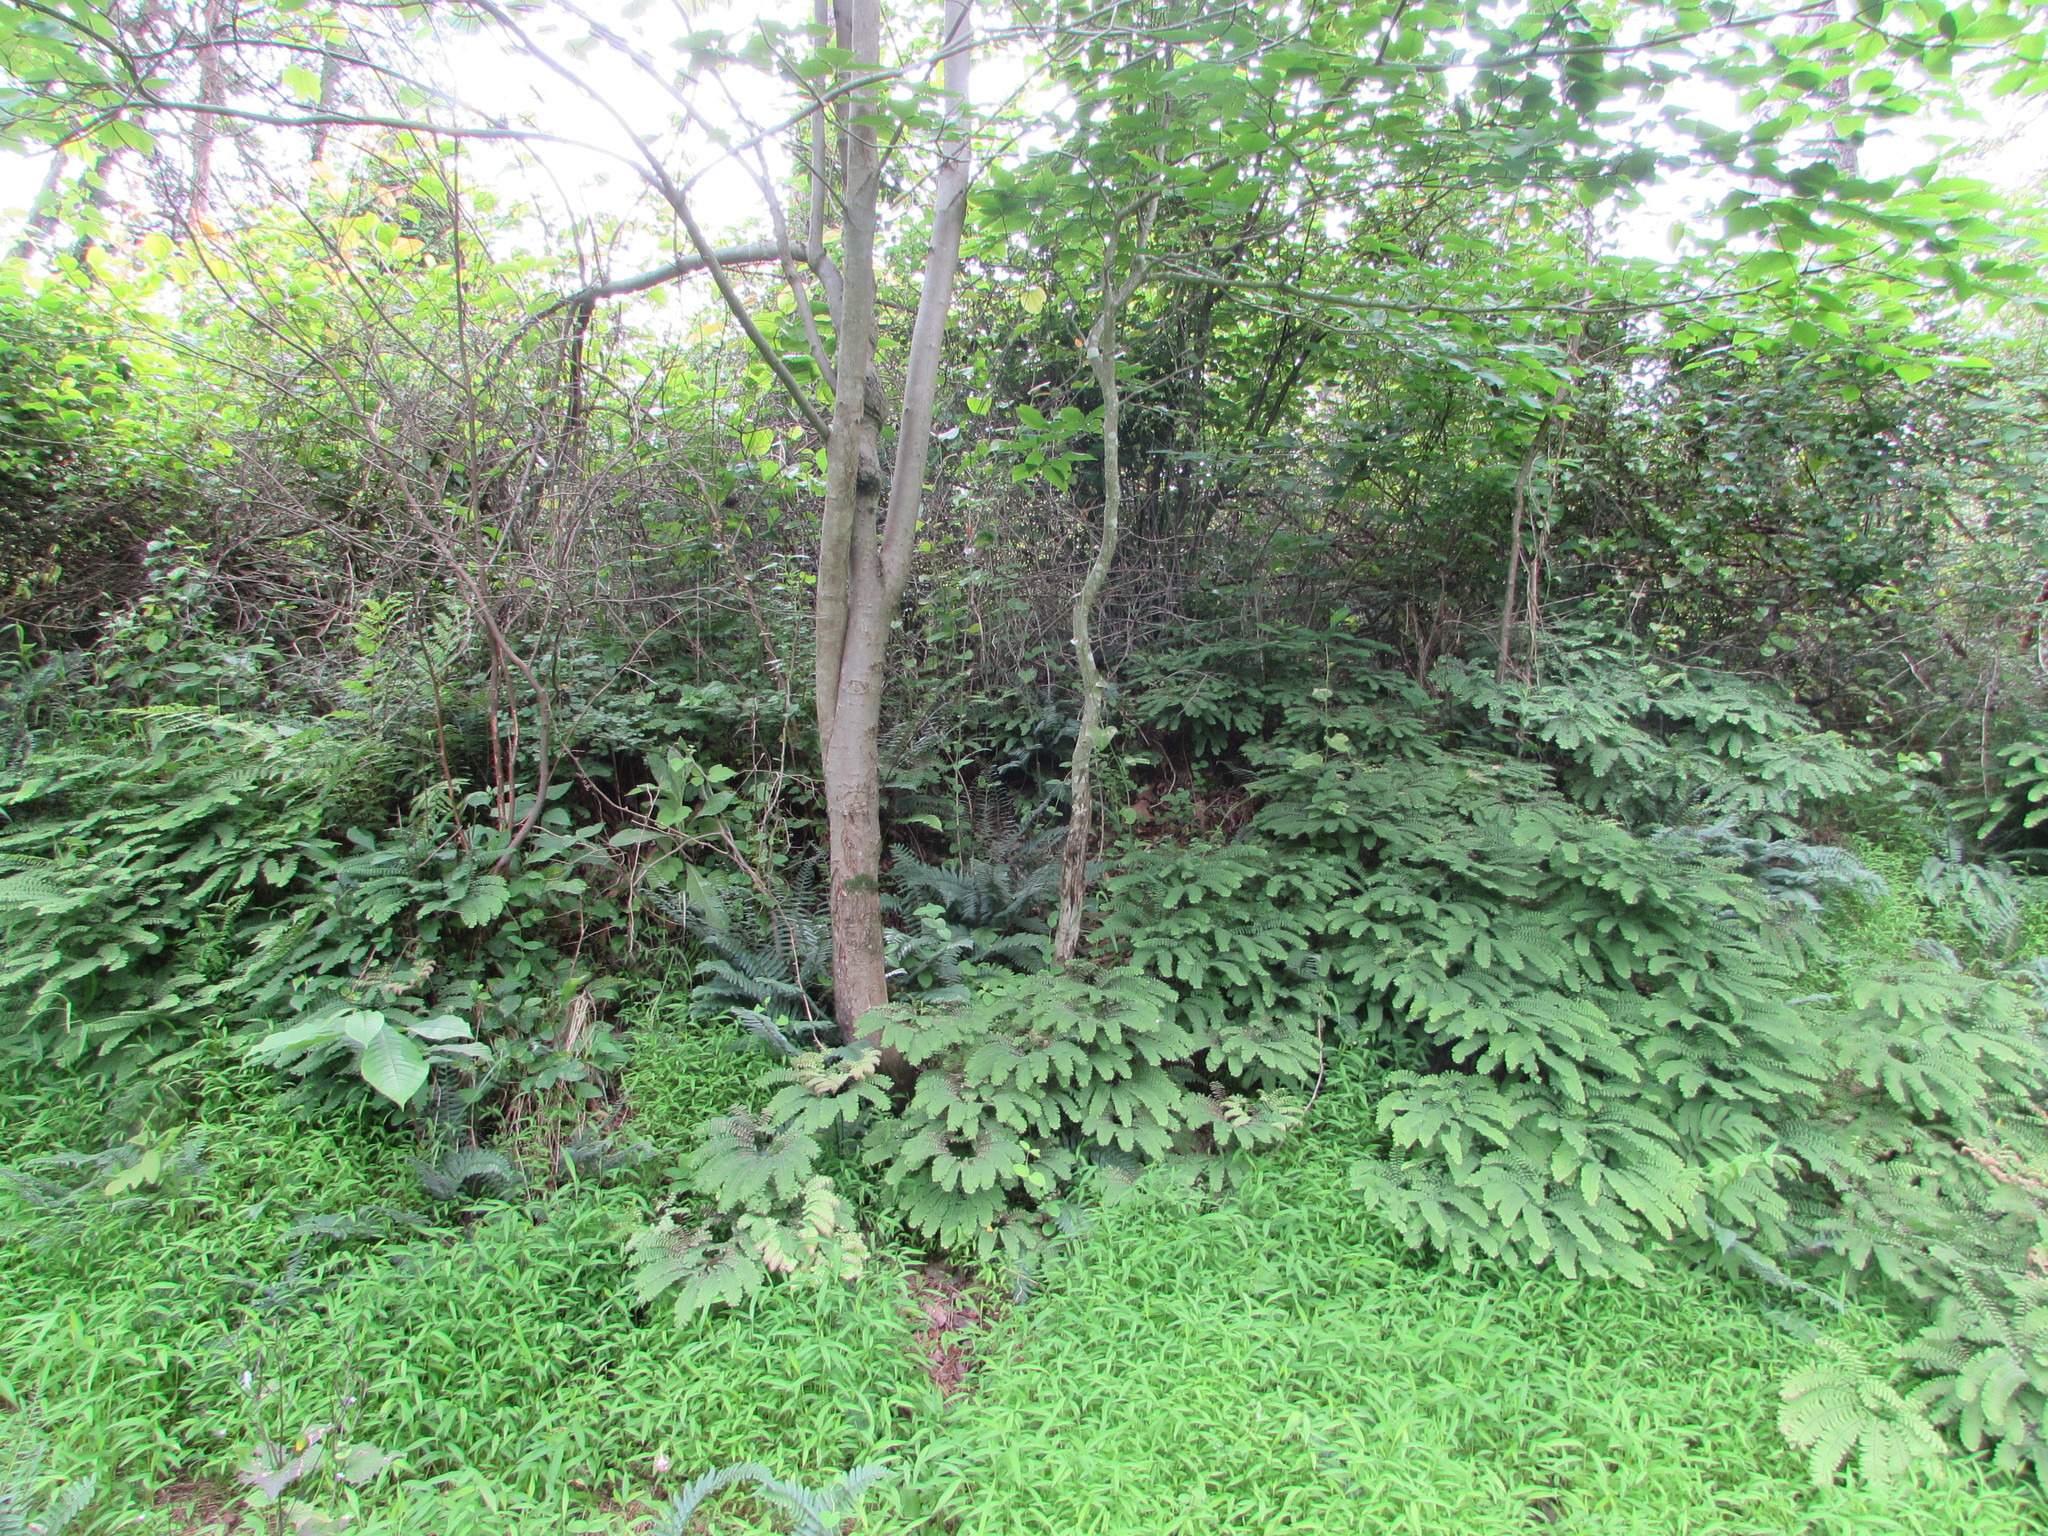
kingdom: Plantae
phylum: Tracheophyta
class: Polypodiopsida
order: Polypodiales
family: Pteridaceae
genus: Adiantum
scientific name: Adiantum pedatum
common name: Five-finger fern
